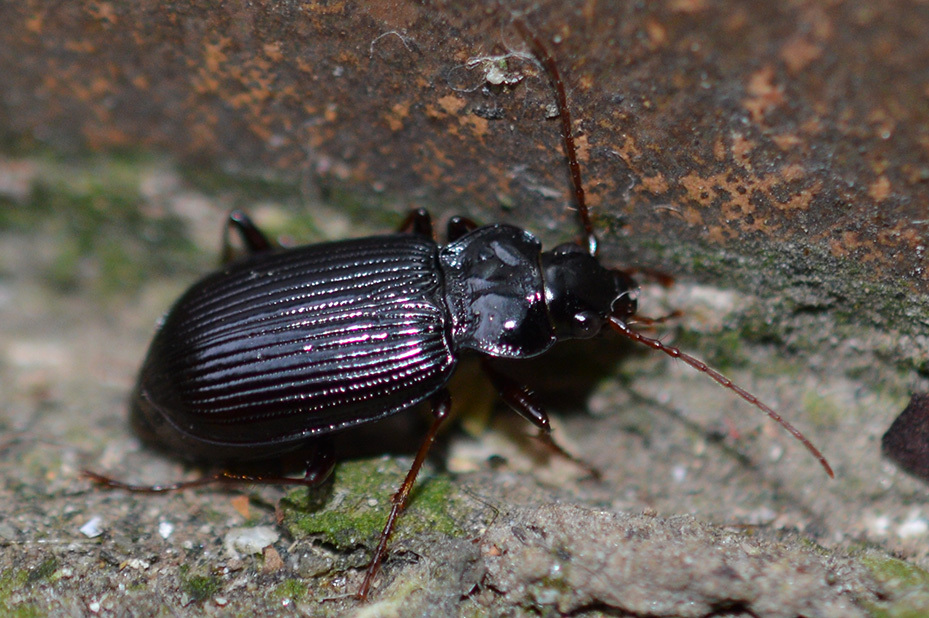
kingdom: Animalia
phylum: Arthropoda
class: Insecta
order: Coleoptera
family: Carabidae
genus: Nebria
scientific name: Nebria brevicollis
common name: Short-necked gazelle beetle
